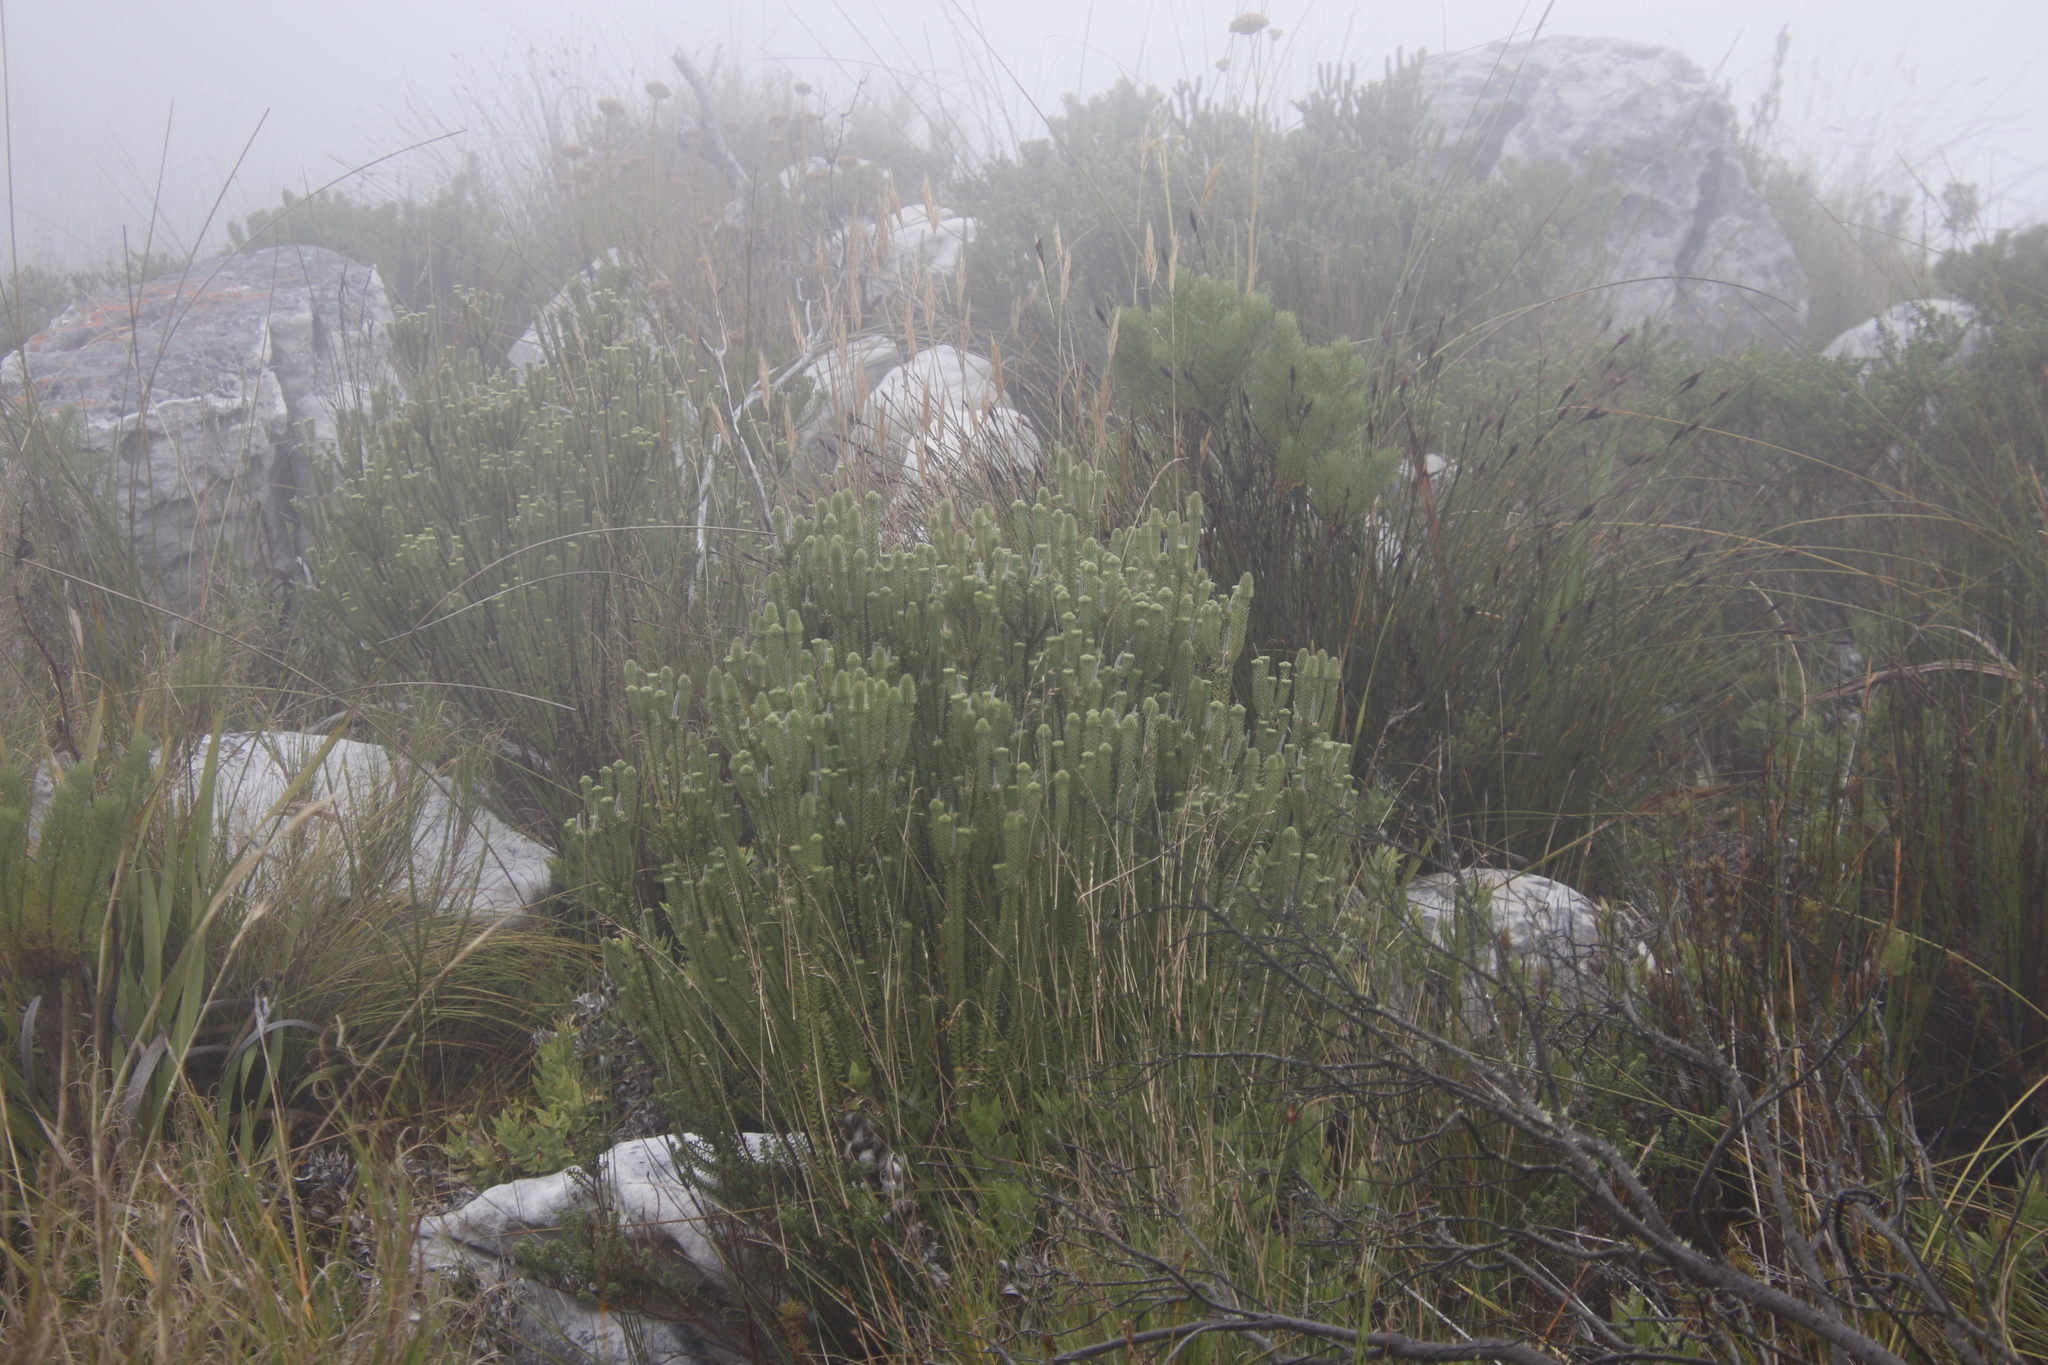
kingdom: Plantae
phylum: Tracheophyta
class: Magnoliopsida
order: Lamiales
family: Stilbaceae
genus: Stilbe
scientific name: Stilbe vestita
